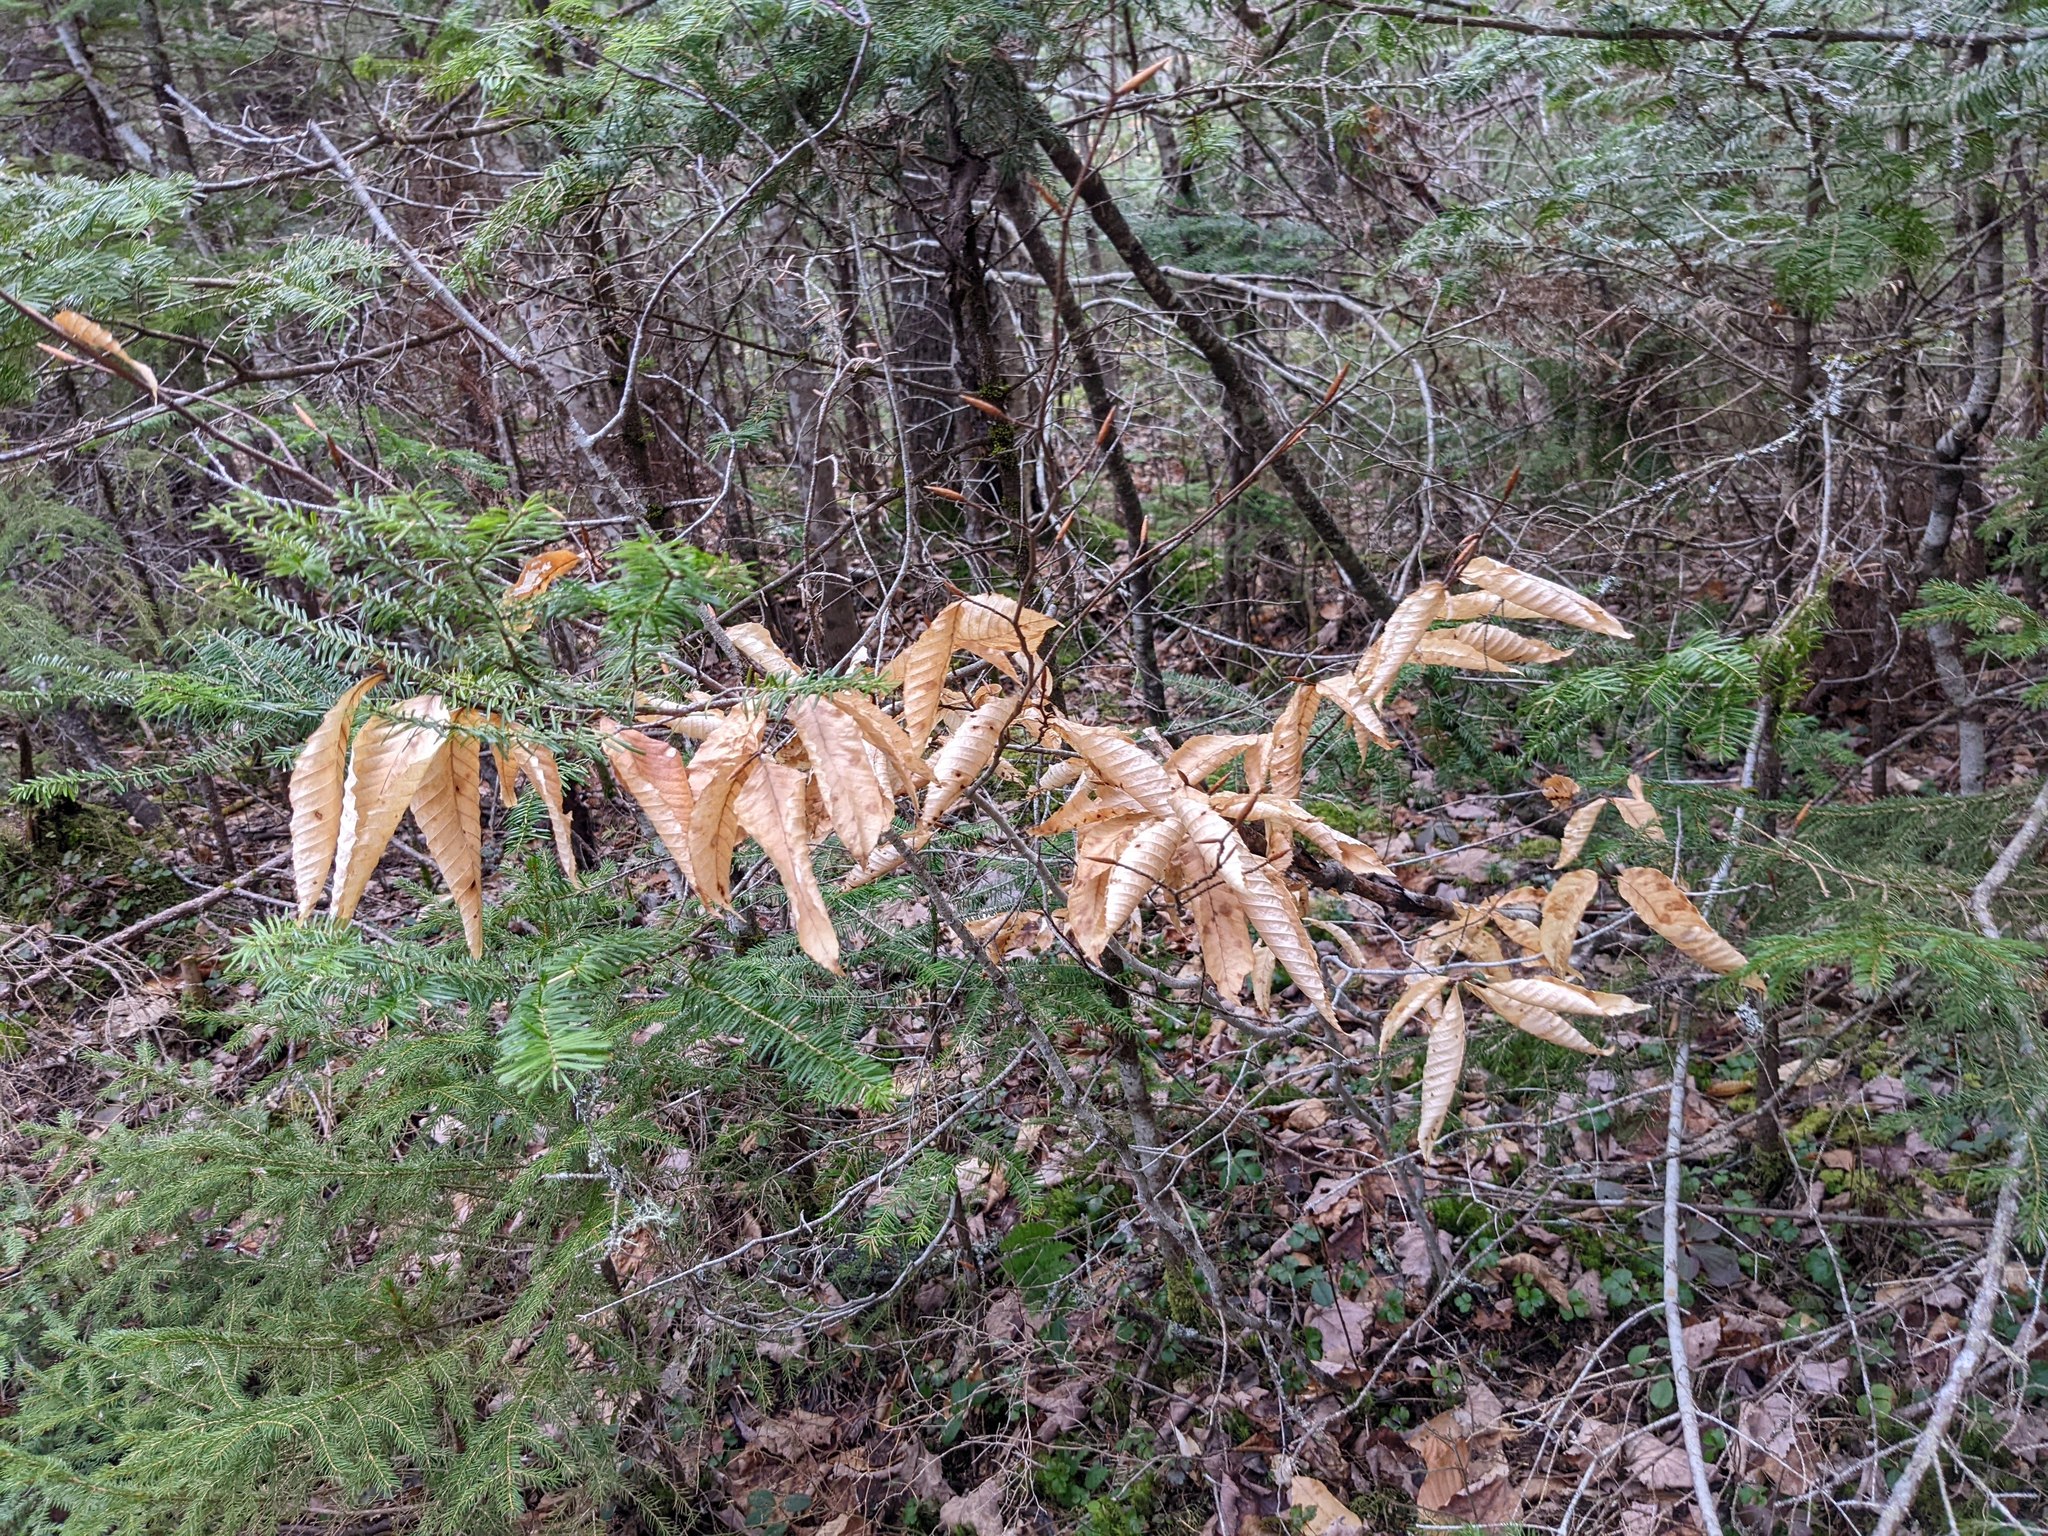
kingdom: Plantae
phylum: Tracheophyta
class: Magnoliopsida
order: Fagales
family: Fagaceae
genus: Fagus
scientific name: Fagus grandifolia
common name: American beech
